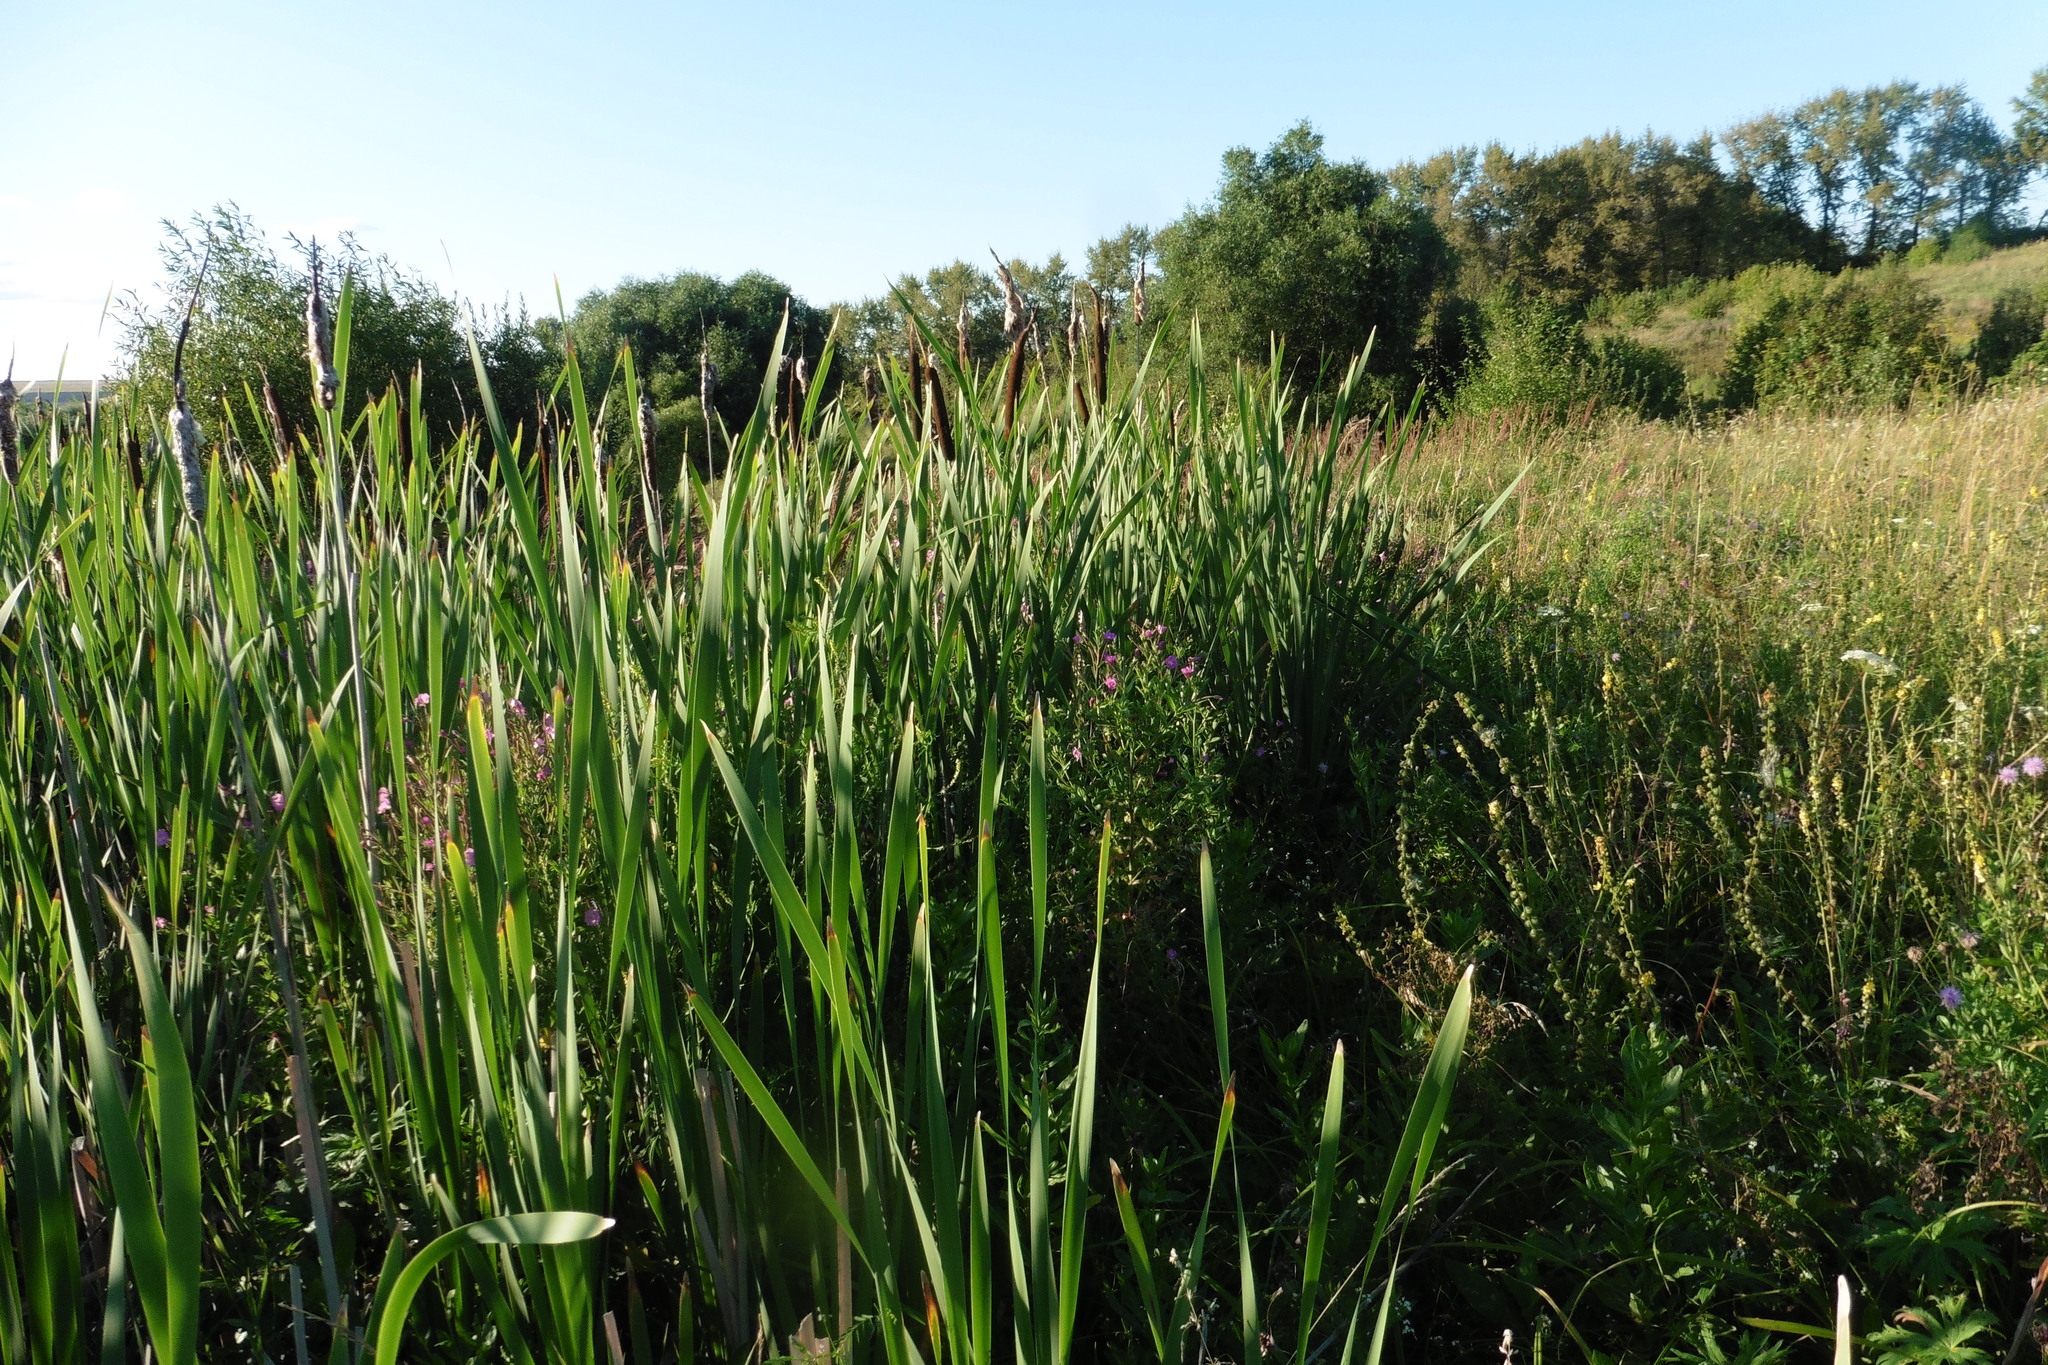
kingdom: Plantae
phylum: Tracheophyta
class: Liliopsida
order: Poales
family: Typhaceae
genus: Typha
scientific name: Typha latifolia
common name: Broadleaf cattail
